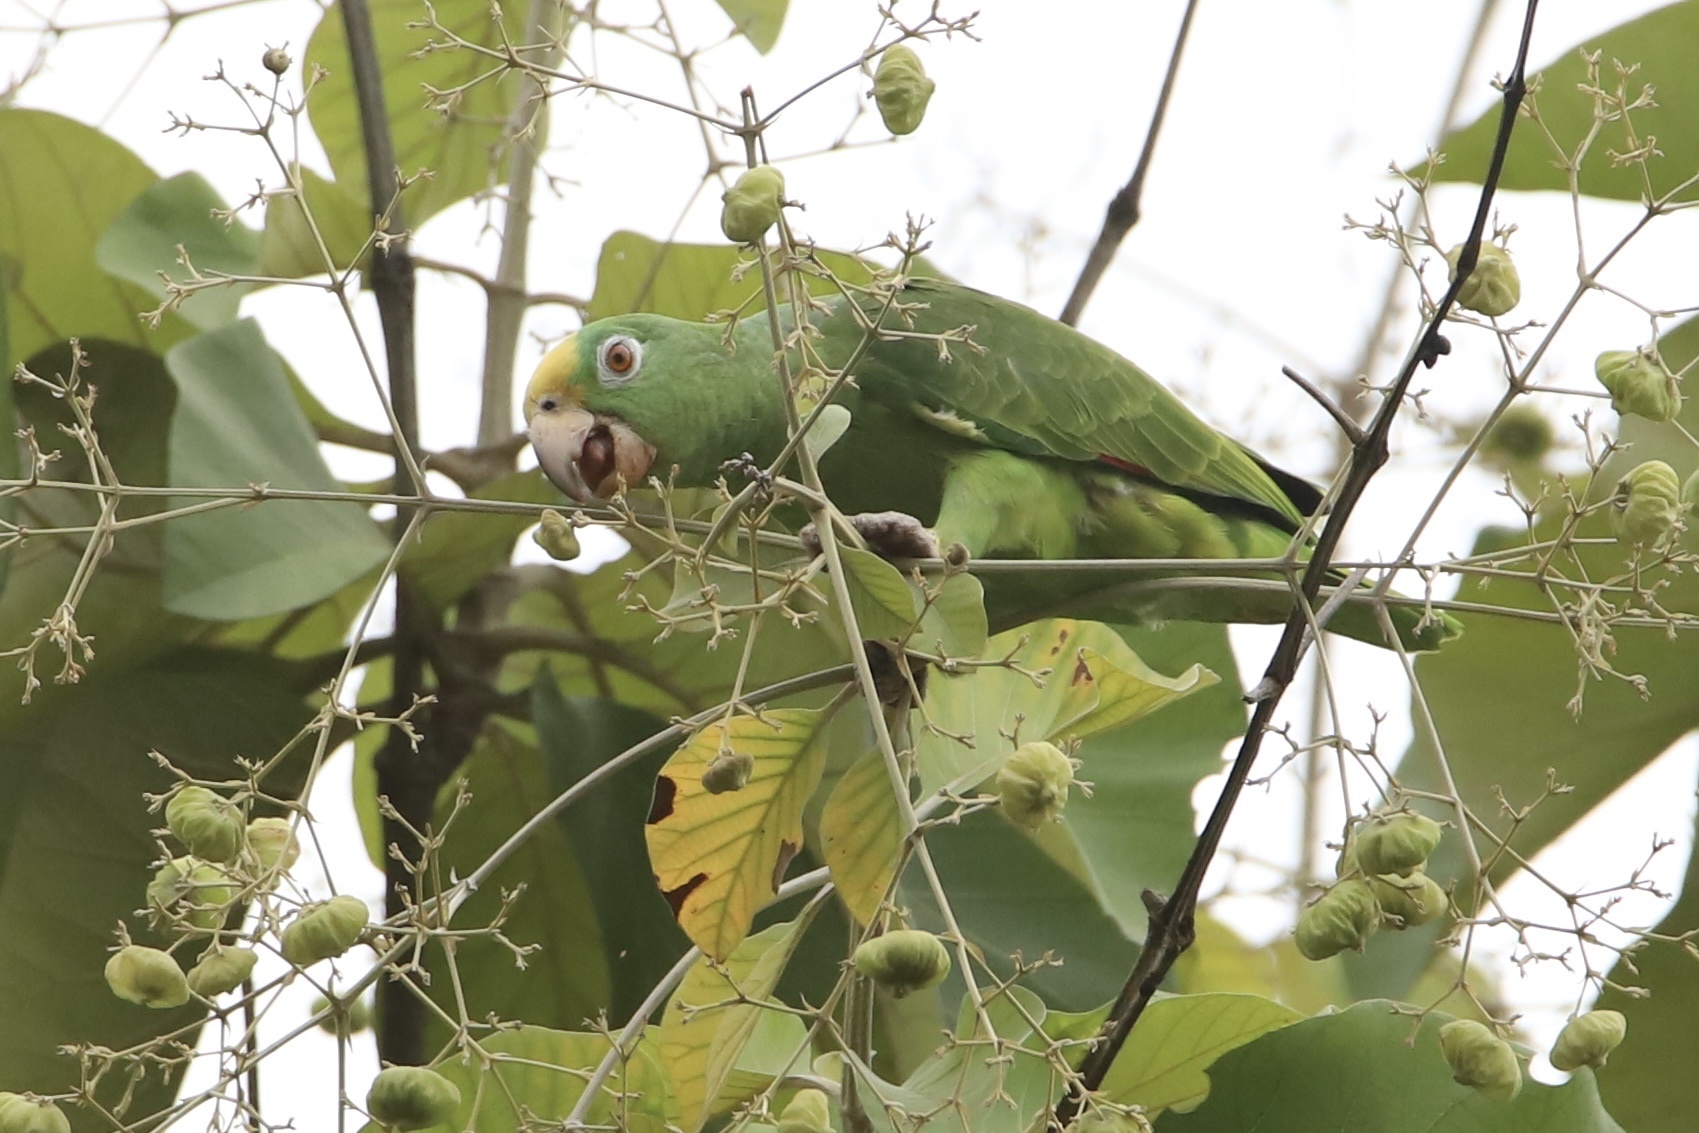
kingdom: Animalia
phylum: Chordata
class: Aves
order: Psittaciformes
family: Psittacidae
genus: Amazona
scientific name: Amazona ochrocephala
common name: Yellow-crowned amazon
